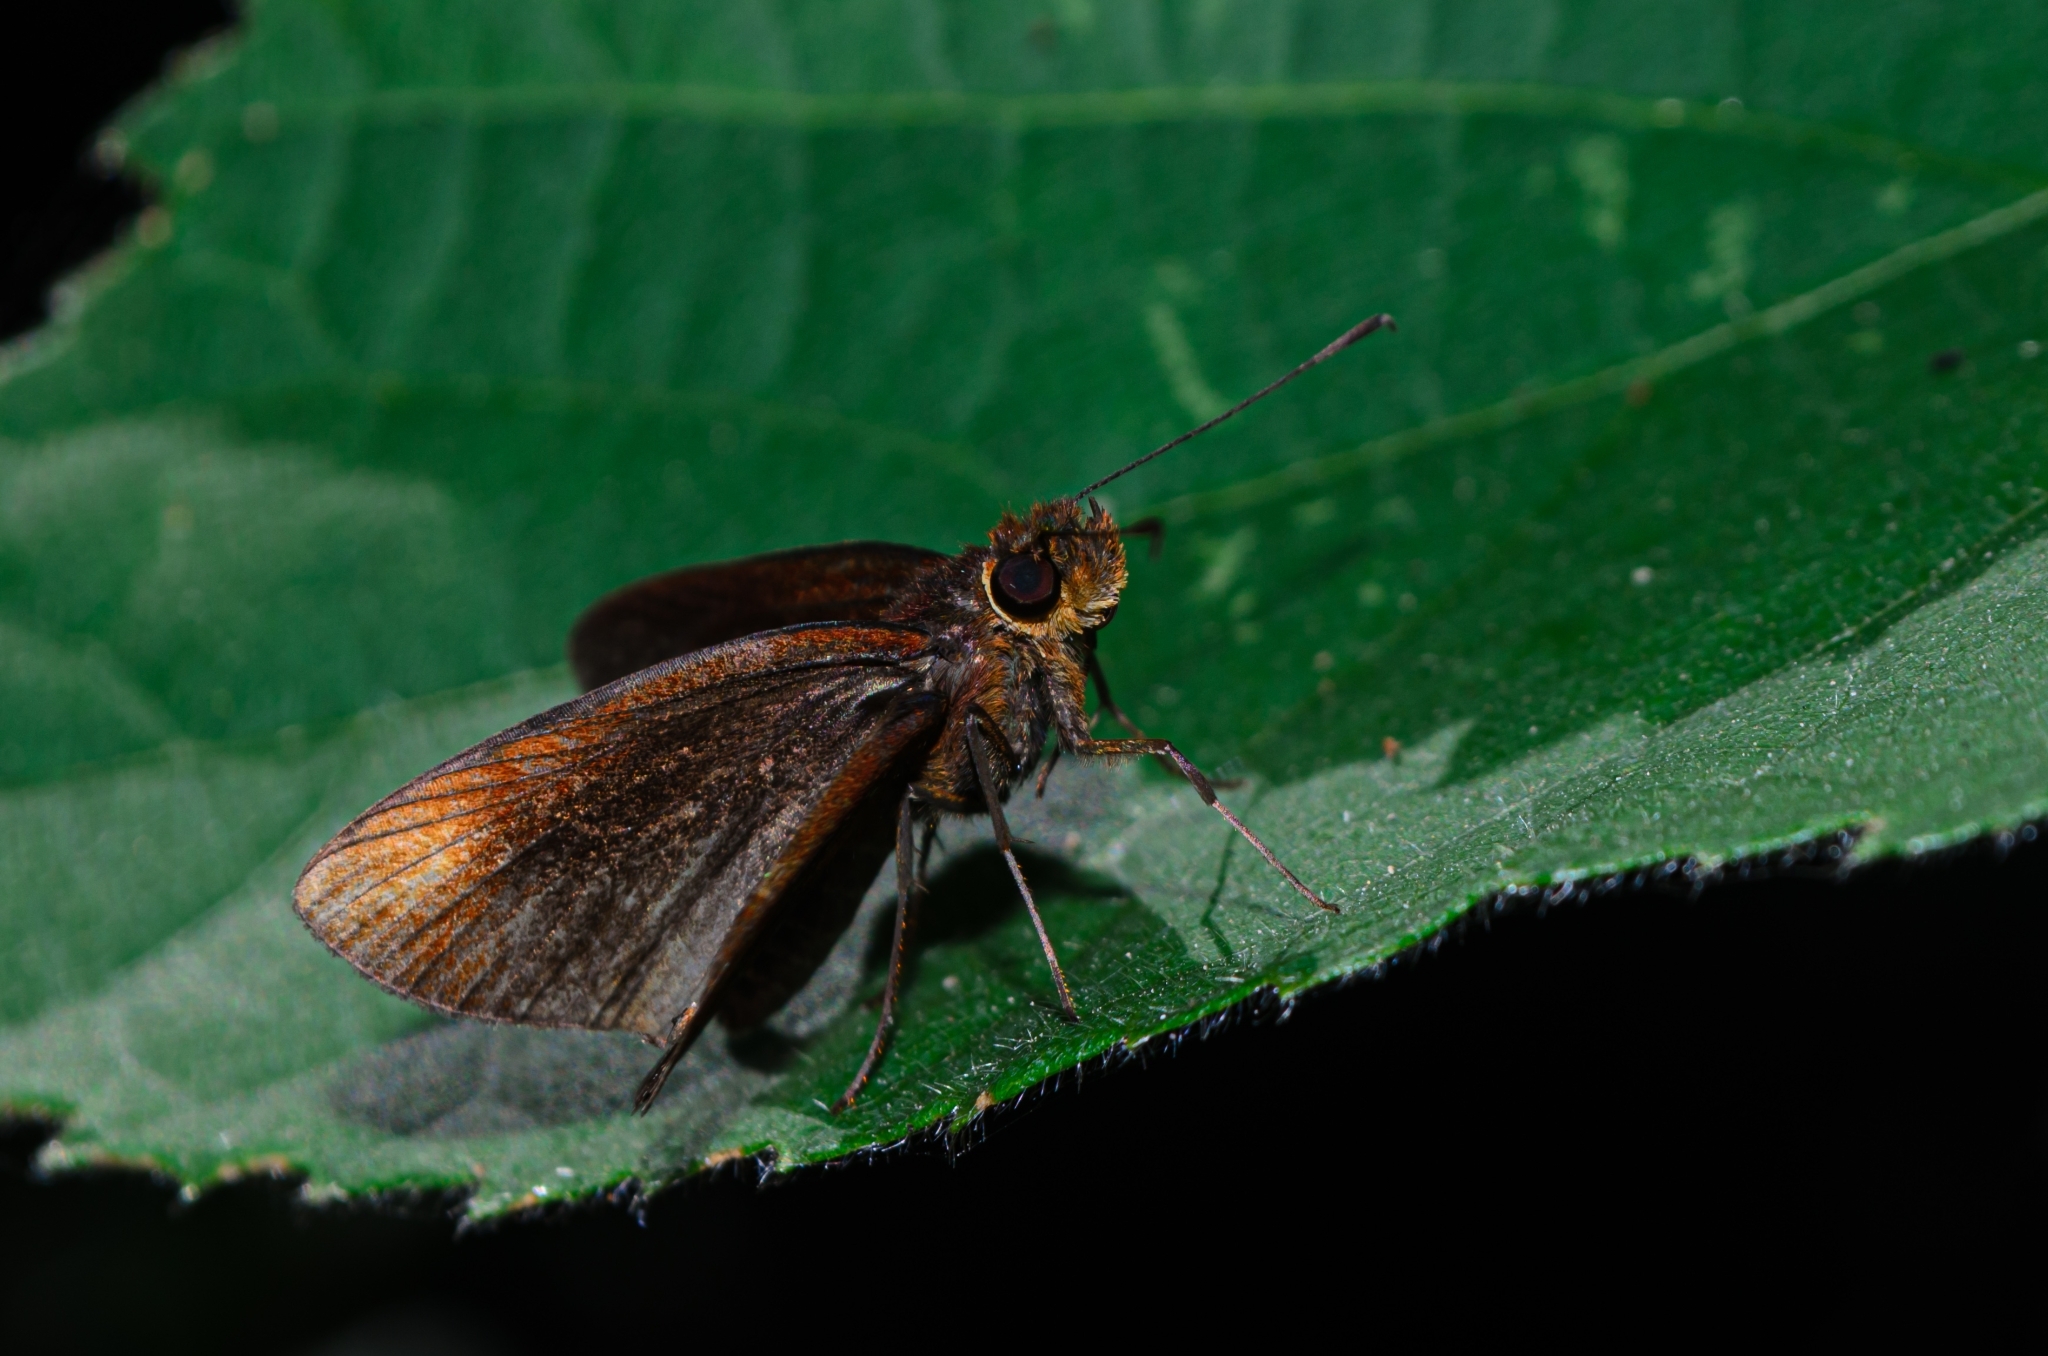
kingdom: Animalia
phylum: Arthropoda
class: Insecta
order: Lepidoptera
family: Hesperiidae
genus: Miltomiges
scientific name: Miltomiges cinnamomea
